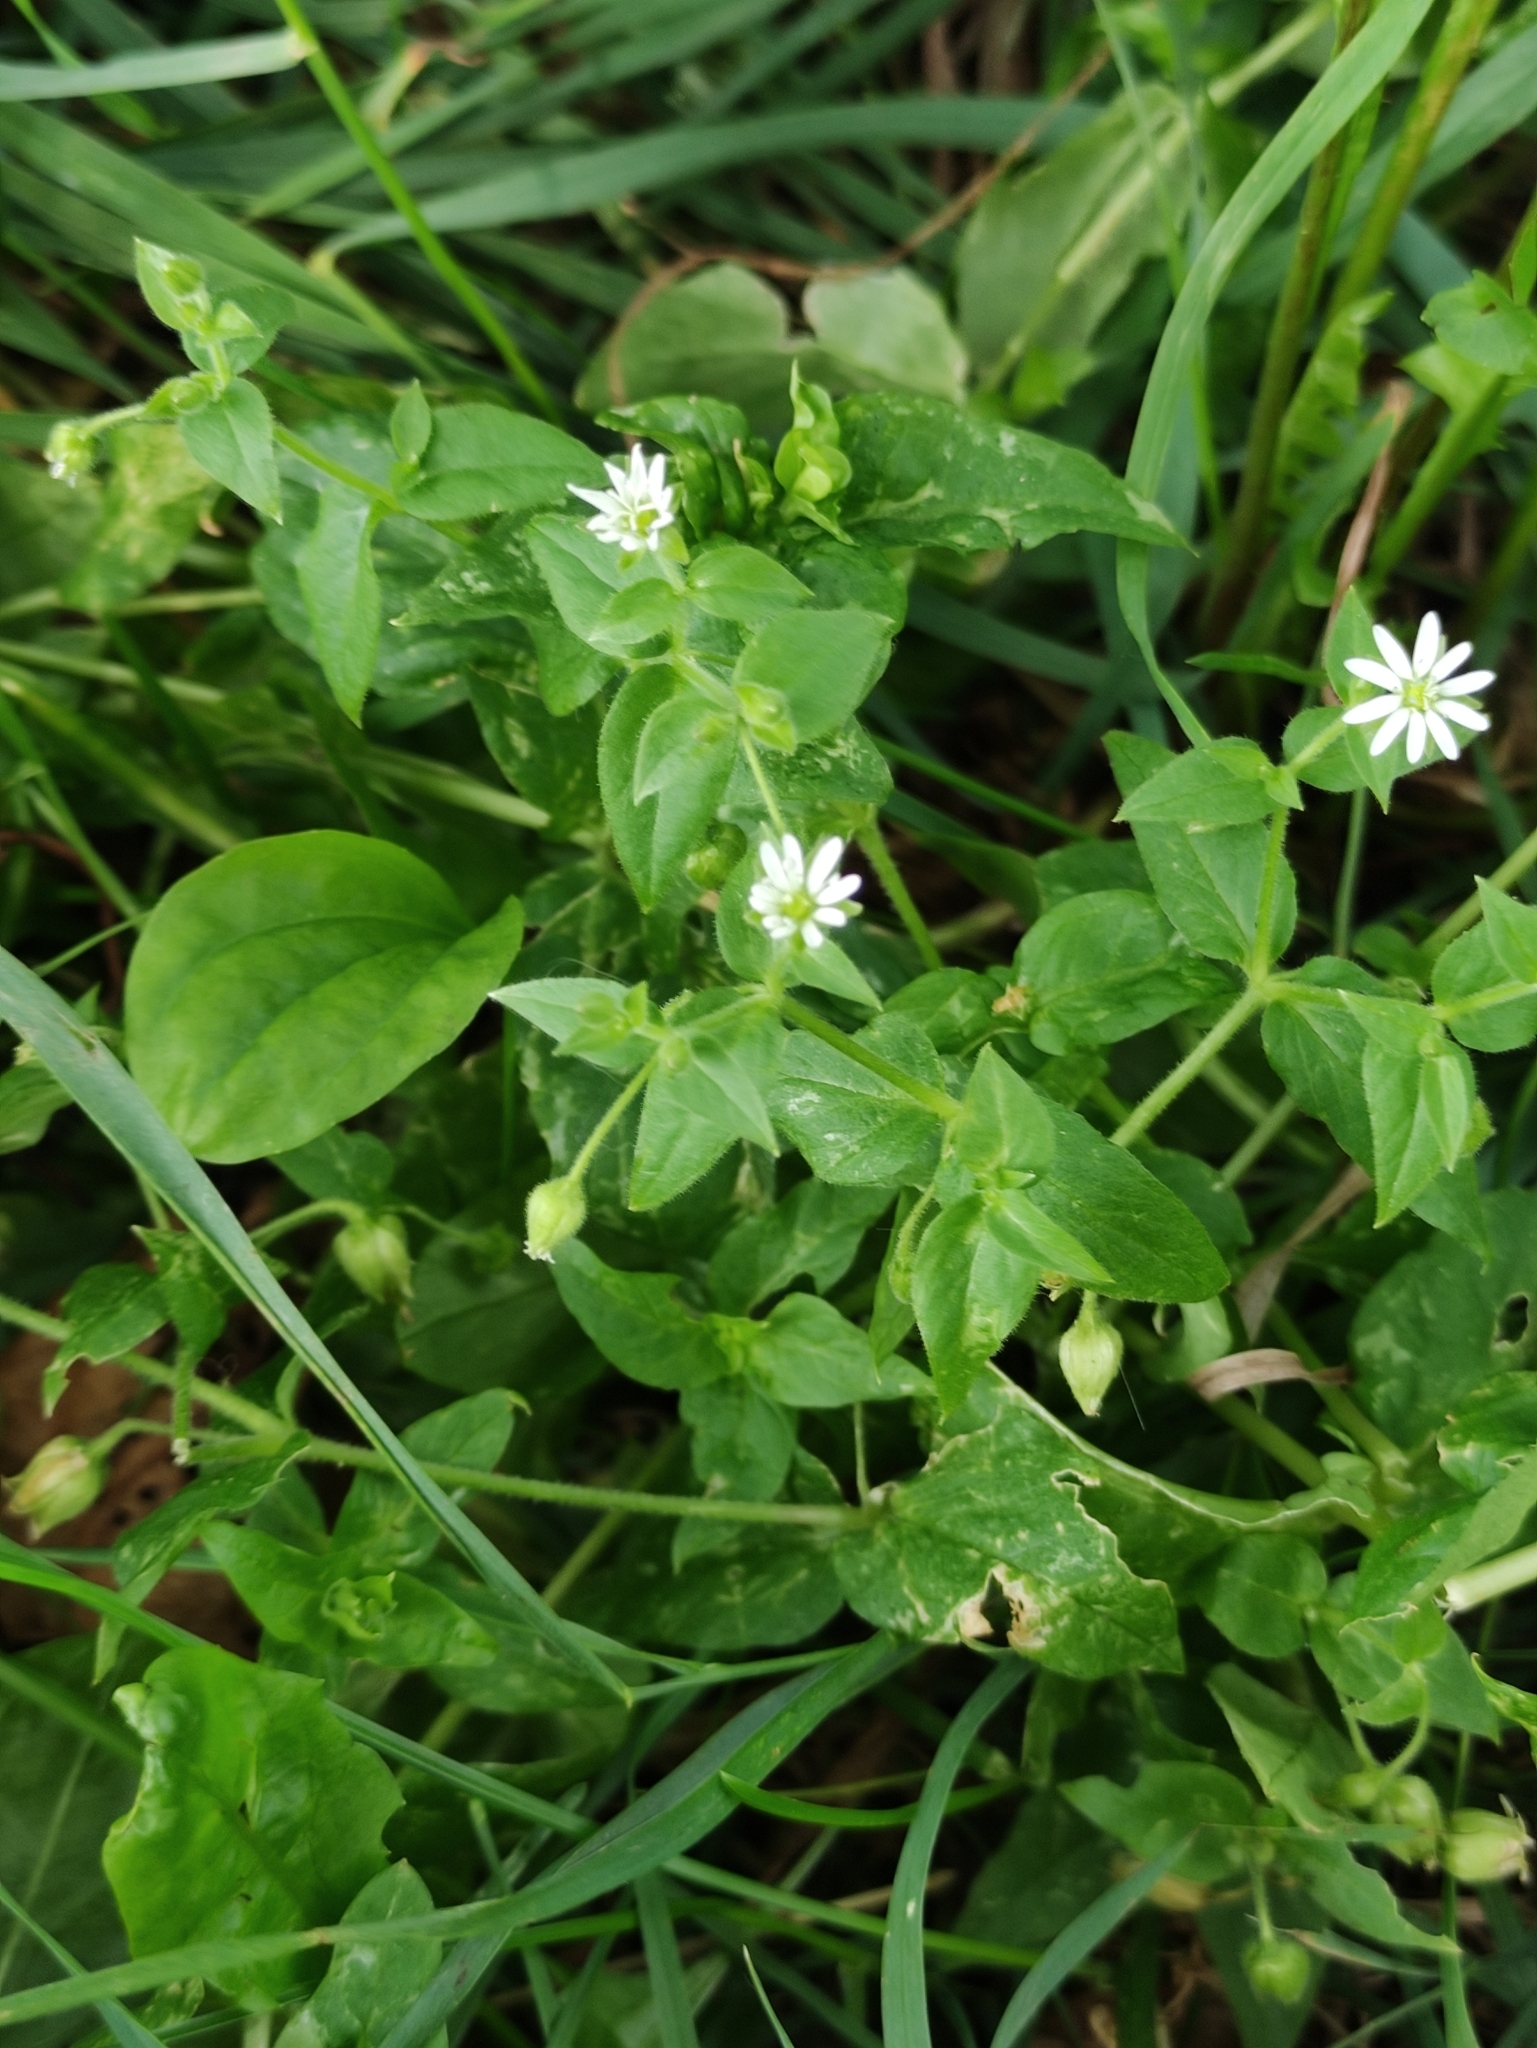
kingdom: Plantae
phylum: Tracheophyta
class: Magnoliopsida
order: Caryophyllales
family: Caryophyllaceae
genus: Stellaria
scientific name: Stellaria aquatica
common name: Water chickweed
